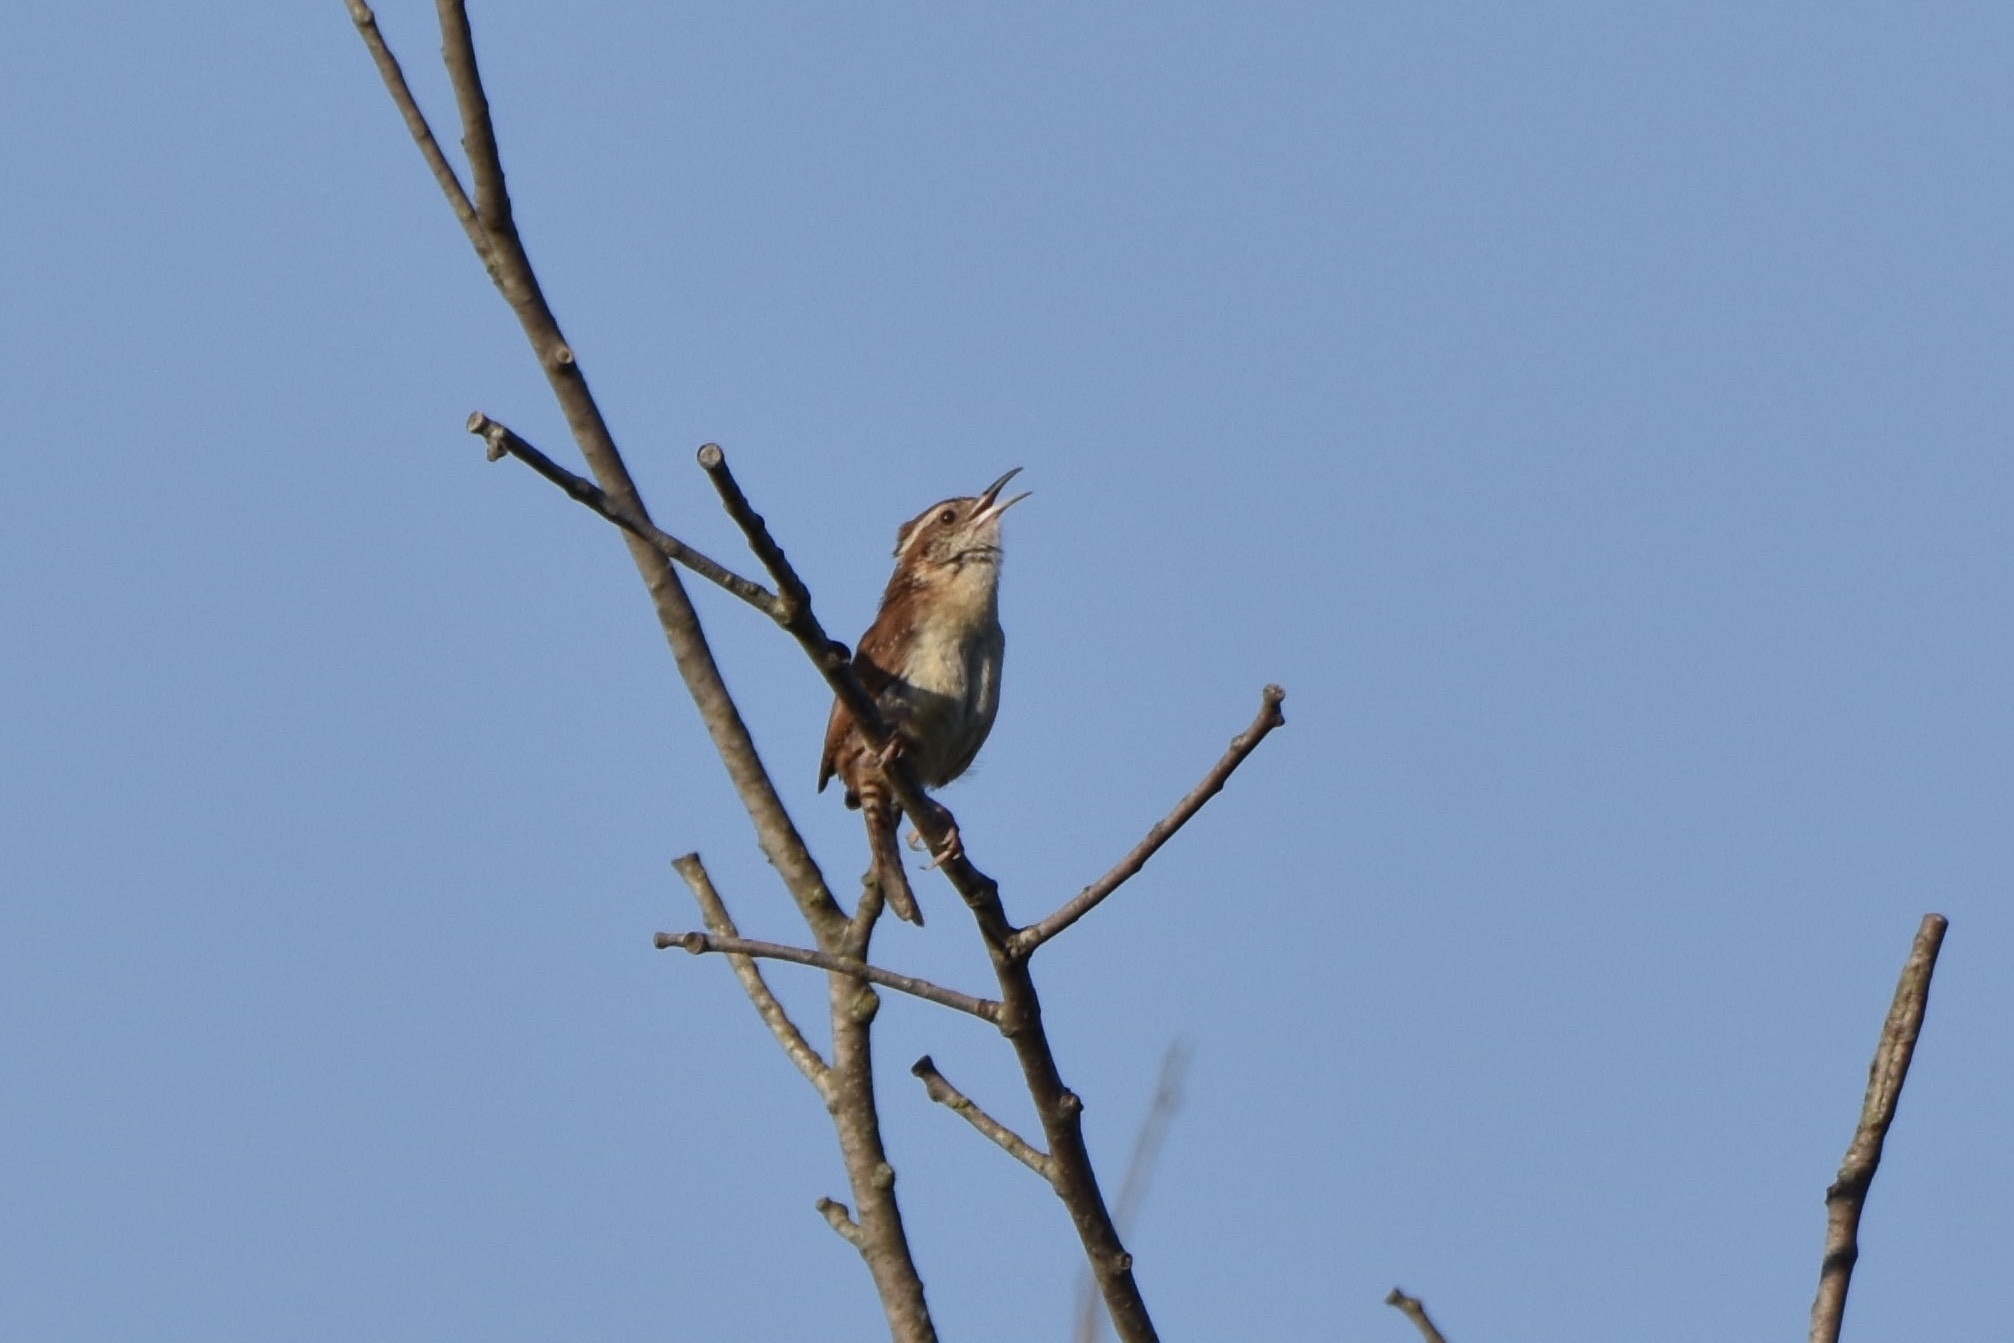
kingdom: Animalia
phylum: Chordata
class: Aves
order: Passeriformes
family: Troglodytidae
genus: Thryothorus
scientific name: Thryothorus ludovicianus
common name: Carolina wren
